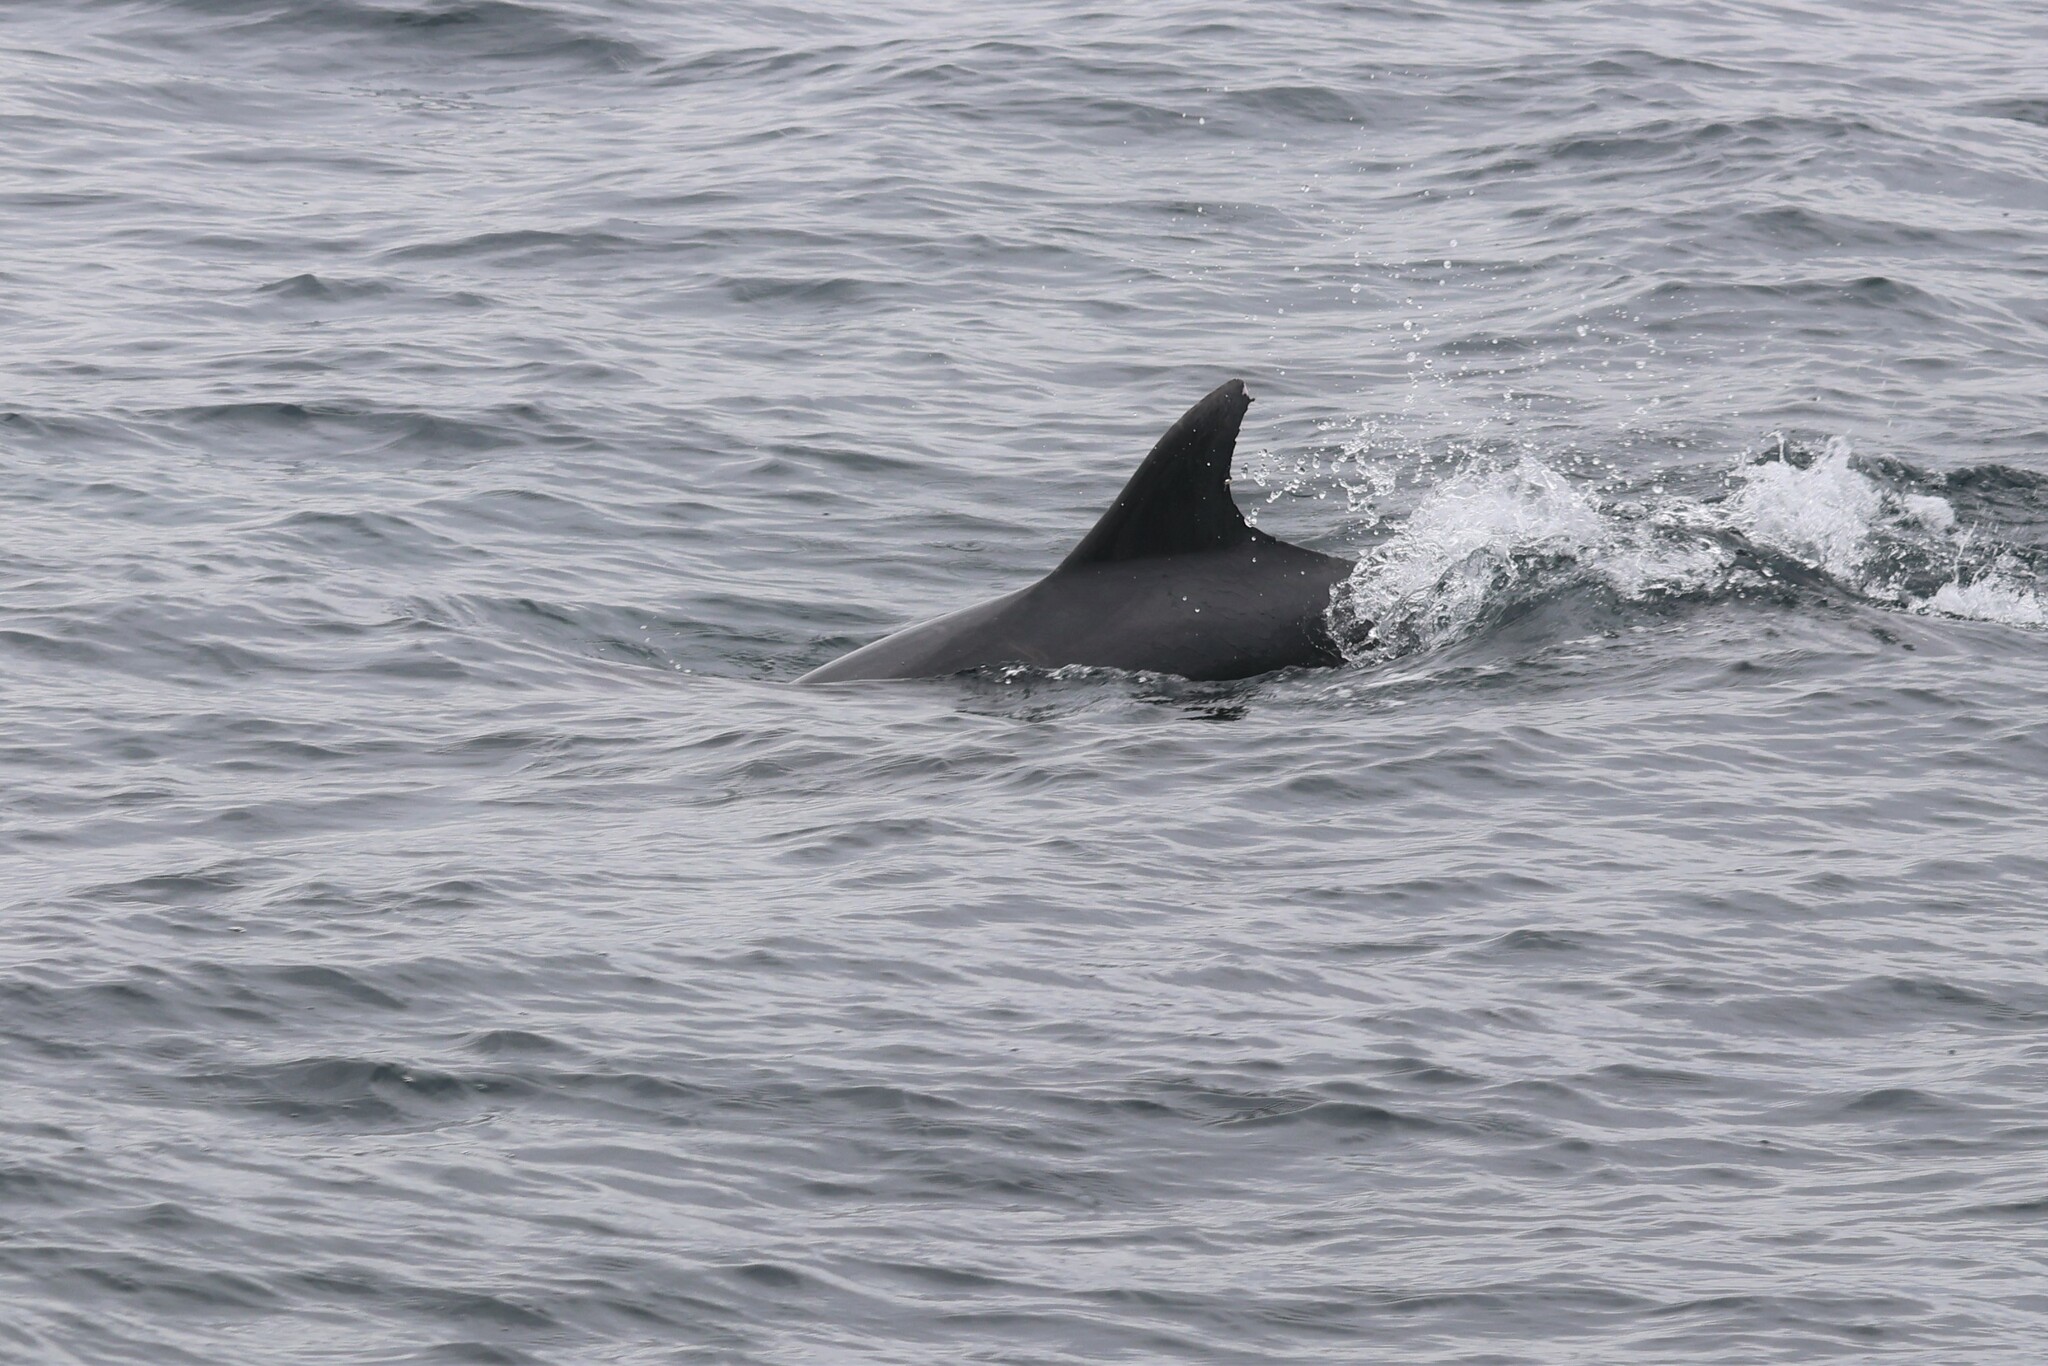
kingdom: Animalia
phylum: Chordata
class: Mammalia
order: Cetacea
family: Delphinidae
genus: Tursiops
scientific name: Tursiops truncatus
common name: Bottlenose dolphin
